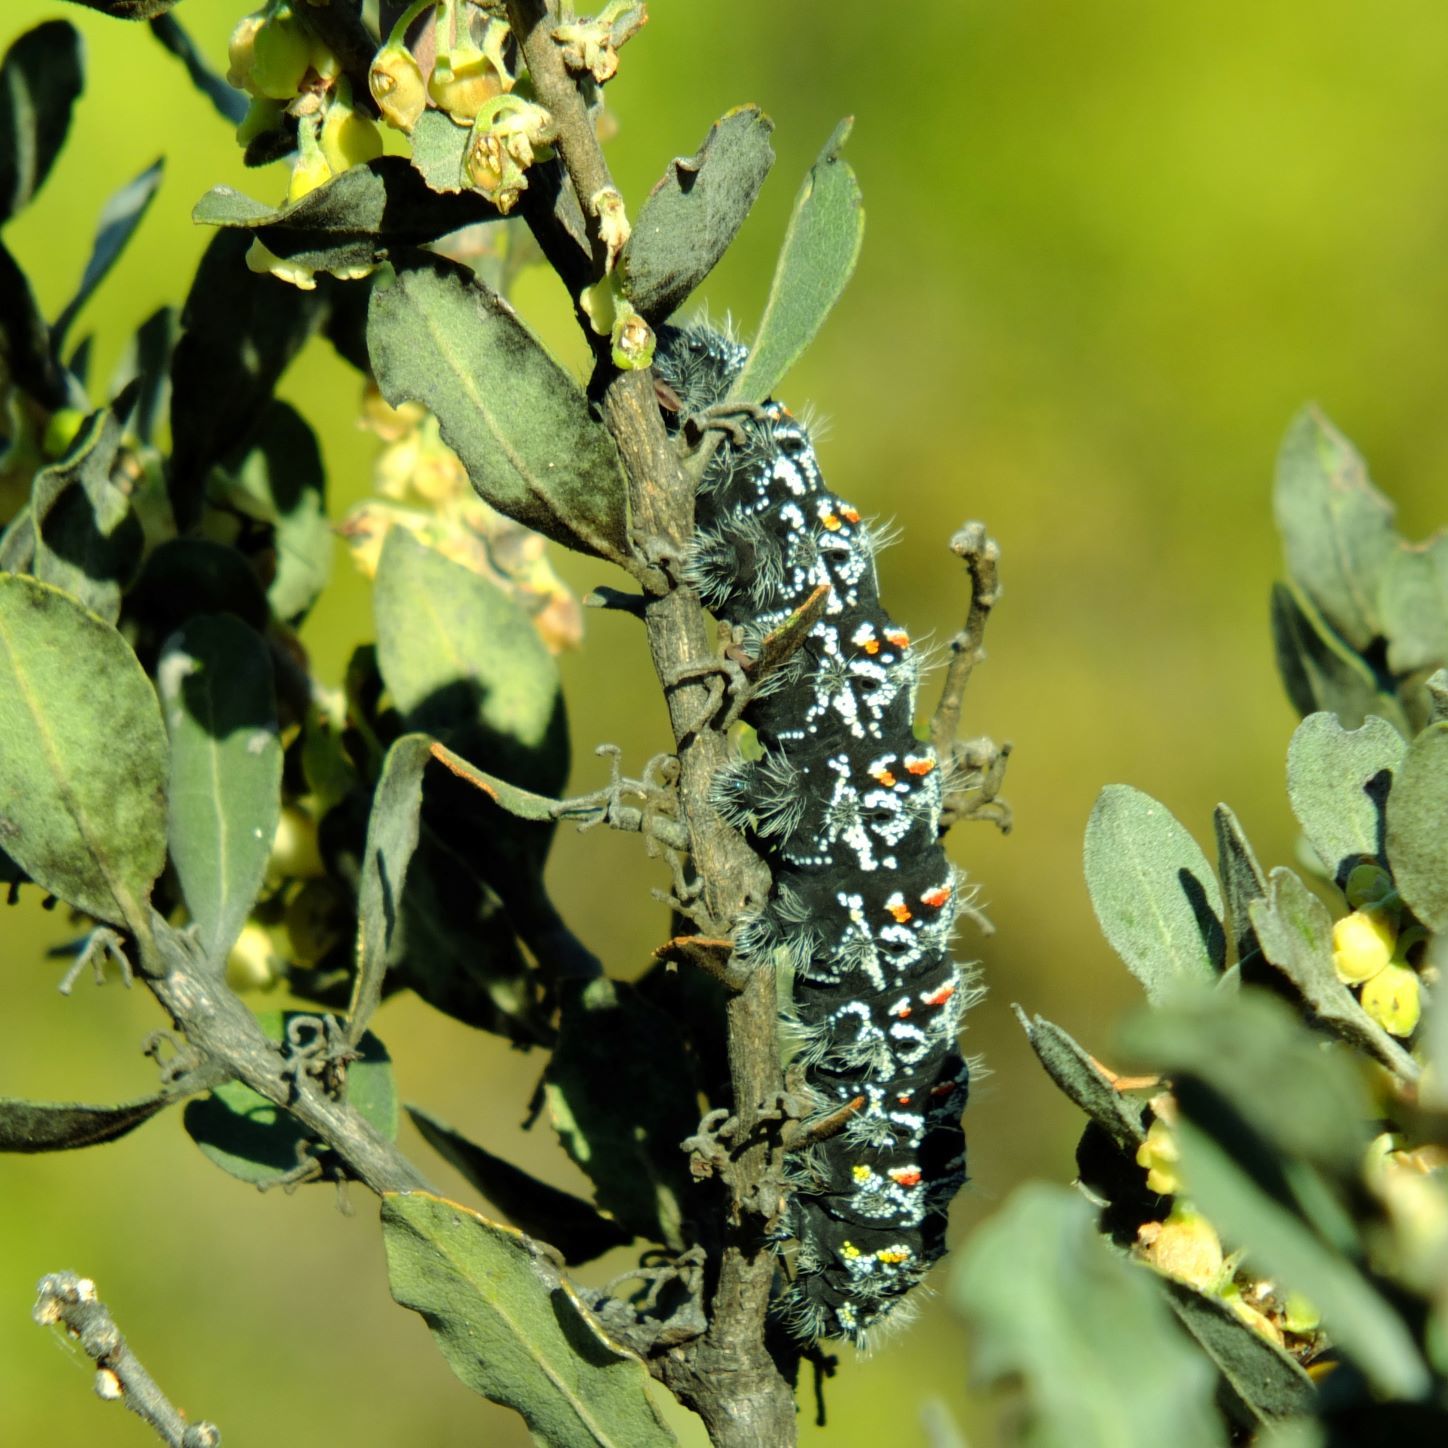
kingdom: Animalia
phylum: Arthropoda
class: Insecta
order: Lepidoptera
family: Saturniidae
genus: Gonimbrasia
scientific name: Gonimbrasia tyrrhea
